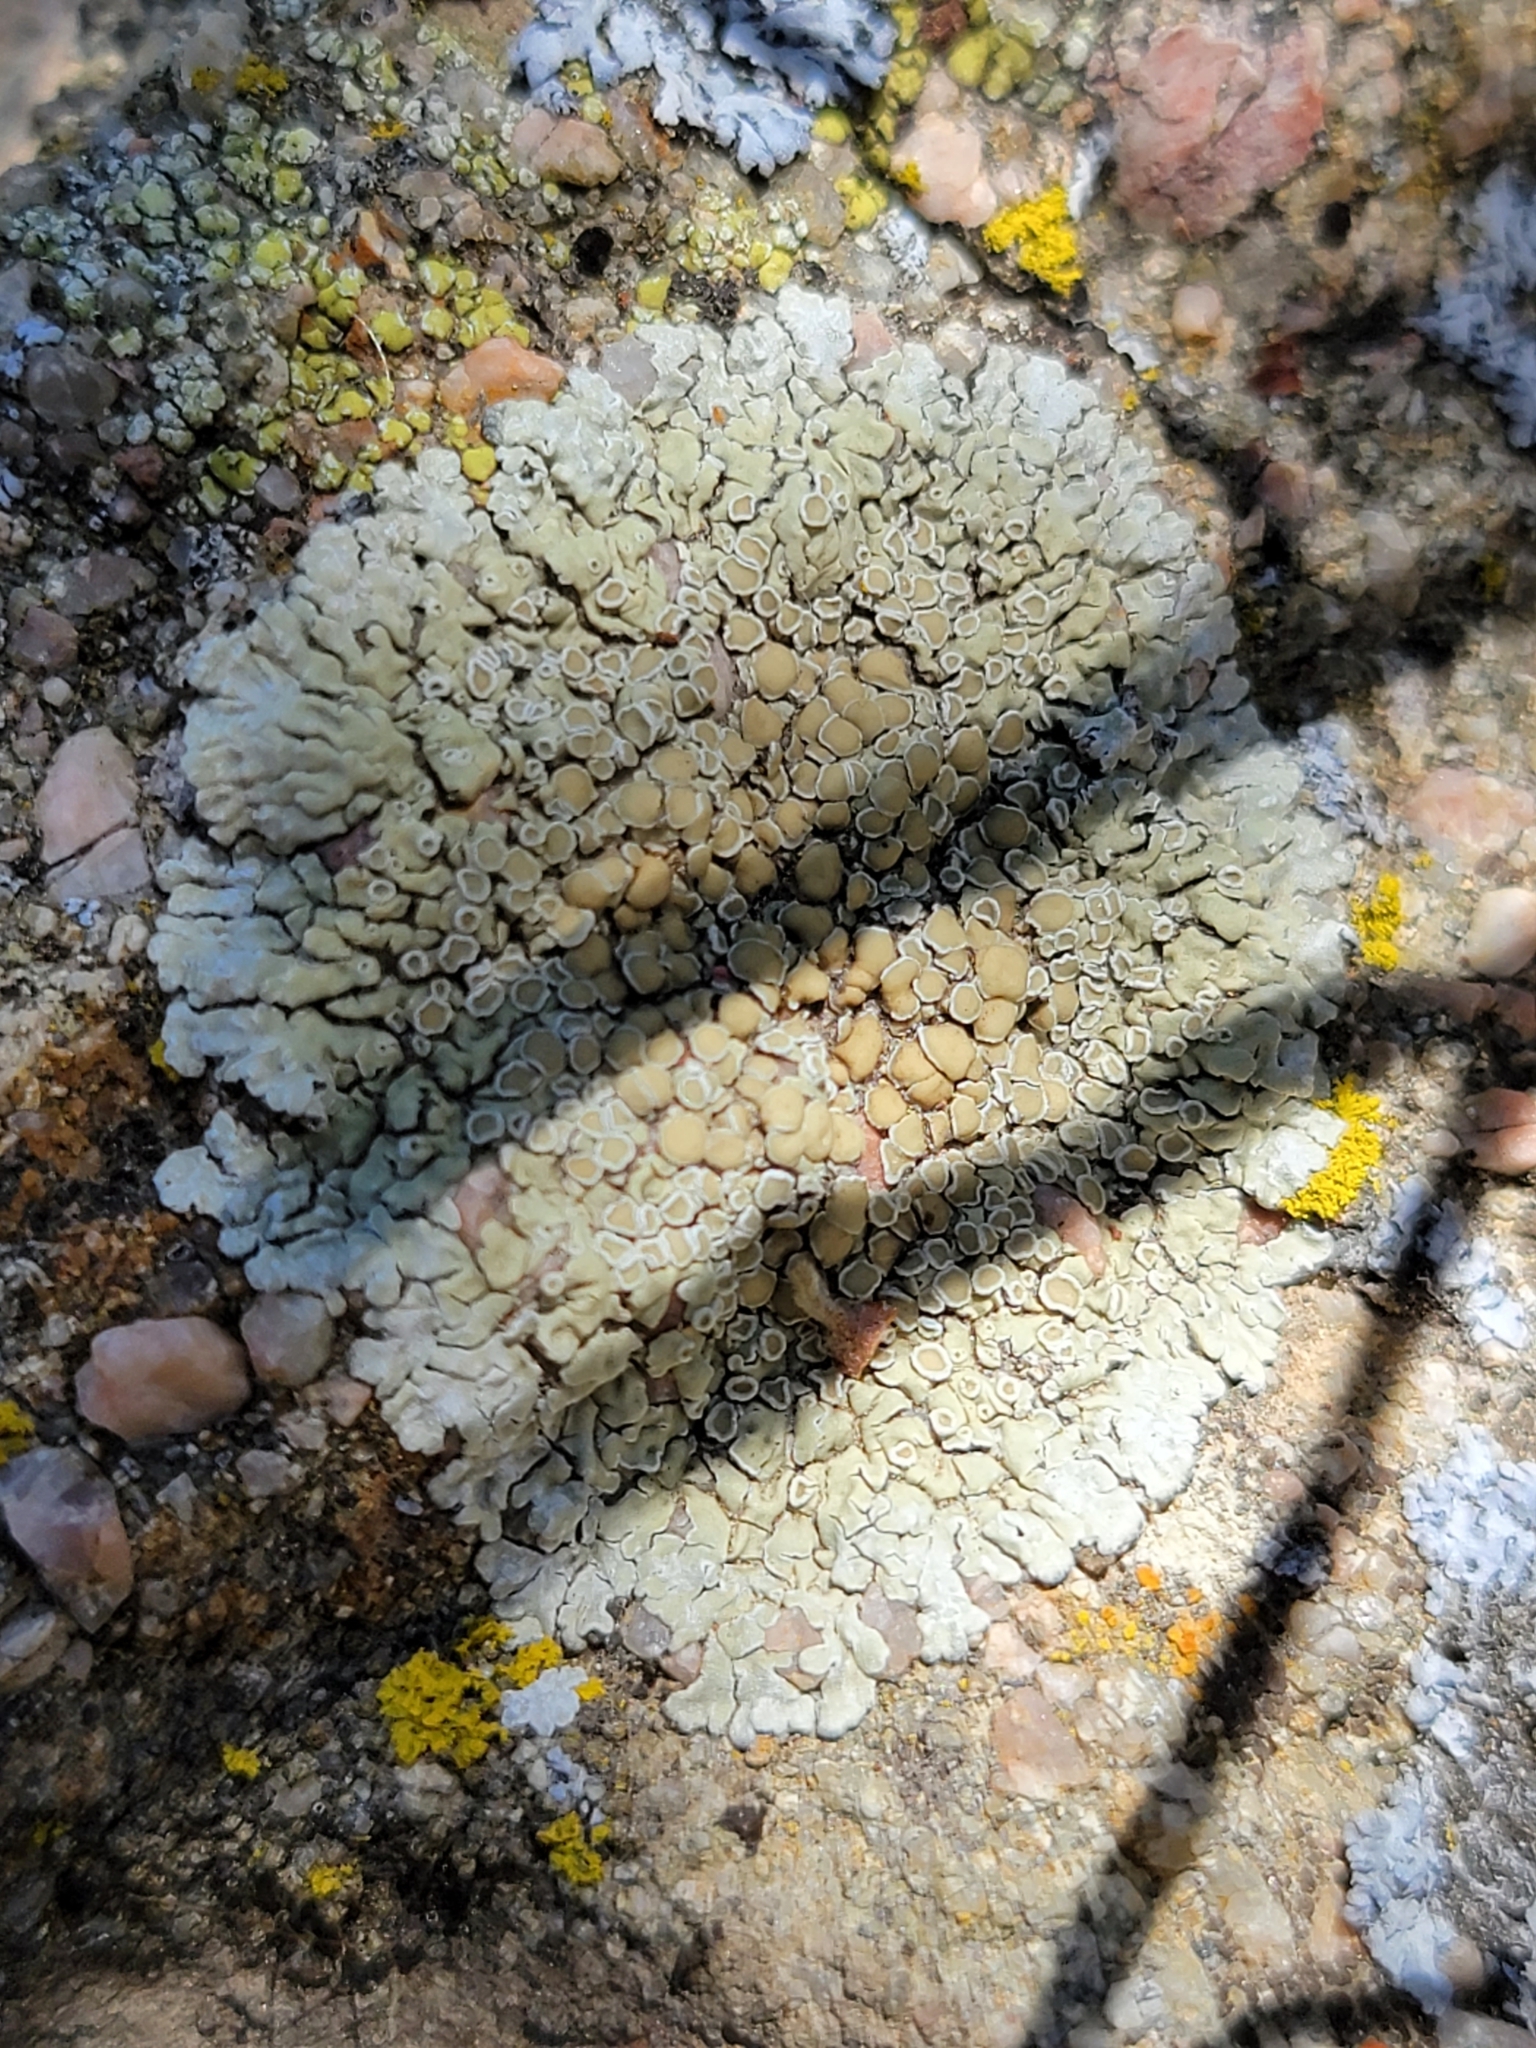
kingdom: Fungi
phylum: Ascomycota
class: Lecanoromycetes
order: Lecanorales
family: Lecanoraceae
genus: Protoparmeliopsis
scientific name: Protoparmeliopsis muralis
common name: Stonewall rim lichen
